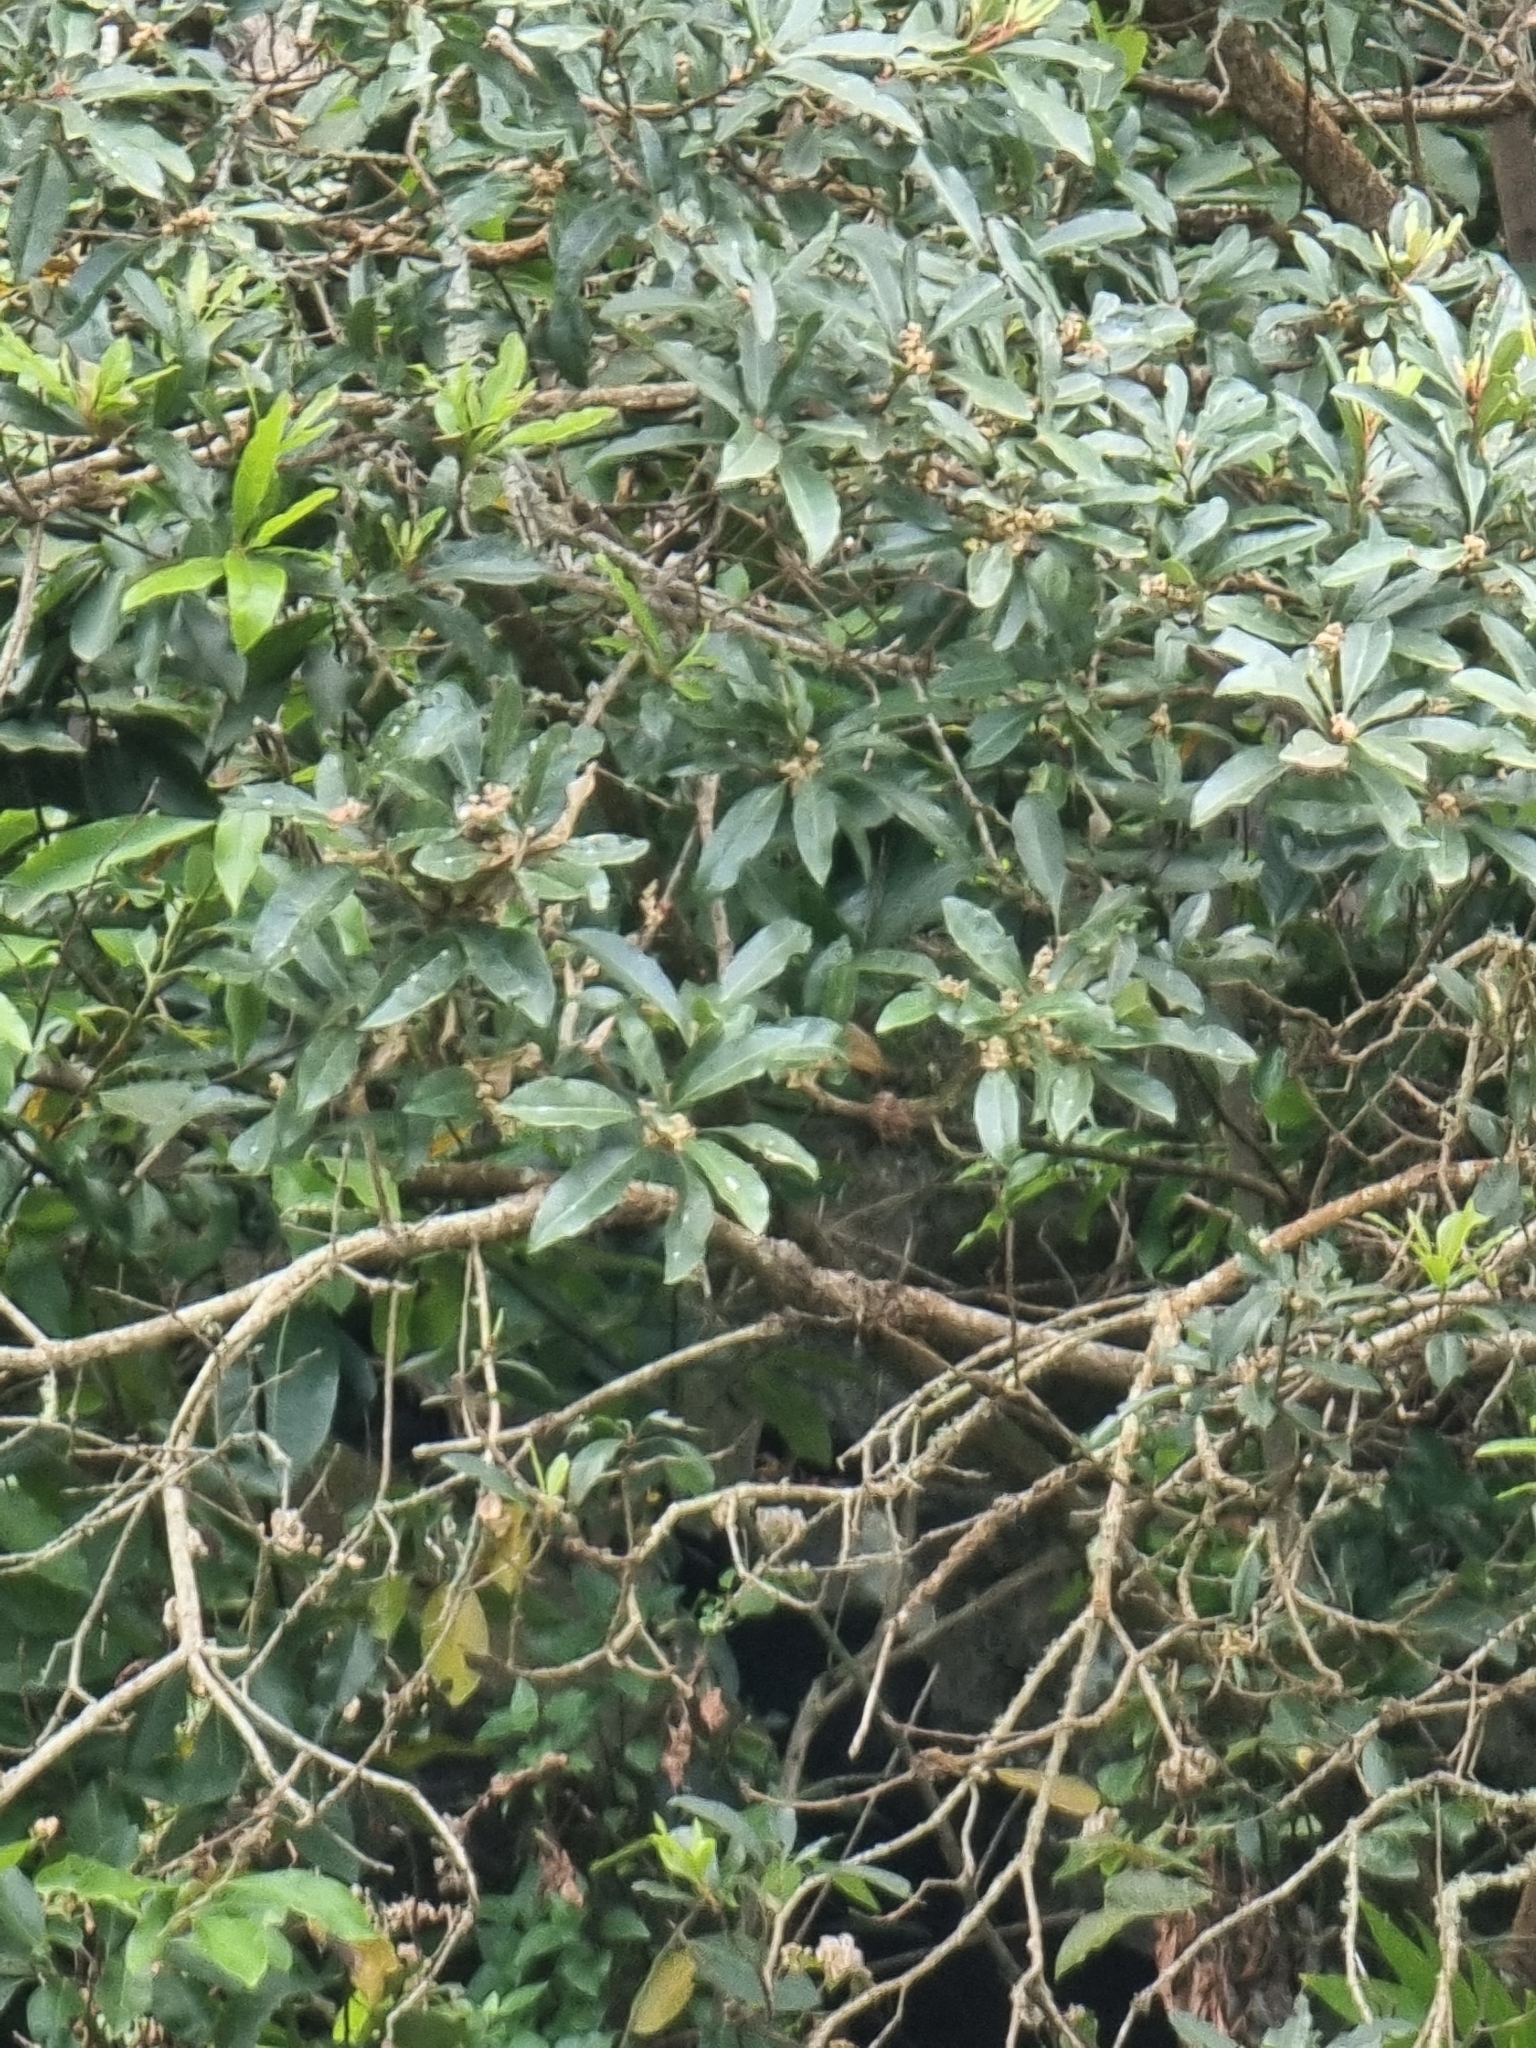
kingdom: Plantae
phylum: Tracheophyta
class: Magnoliopsida
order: Fagales
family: Myricaceae
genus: Morella
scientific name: Morella faya
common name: Firetree
